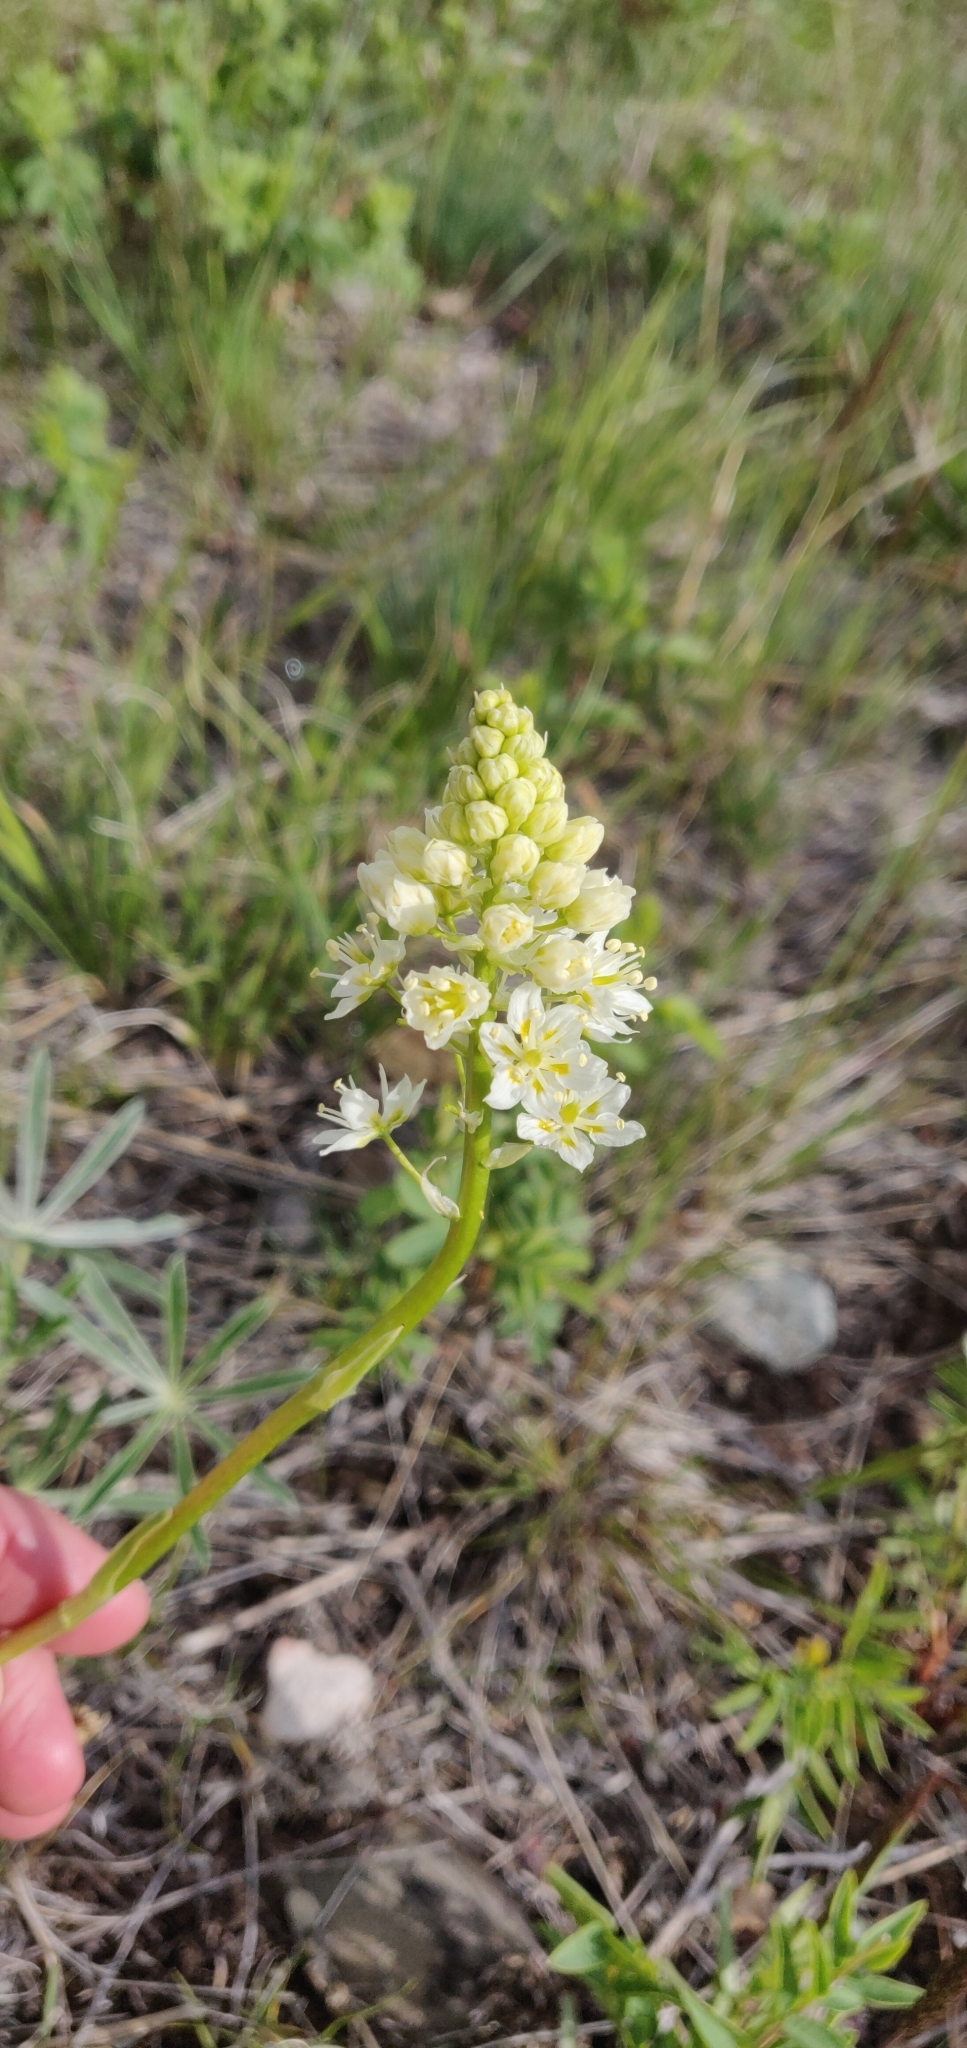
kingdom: Plantae
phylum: Tracheophyta
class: Liliopsida
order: Liliales
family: Melanthiaceae
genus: Toxicoscordion
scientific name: Toxicoscordion venenosum
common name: Meadow death camas
